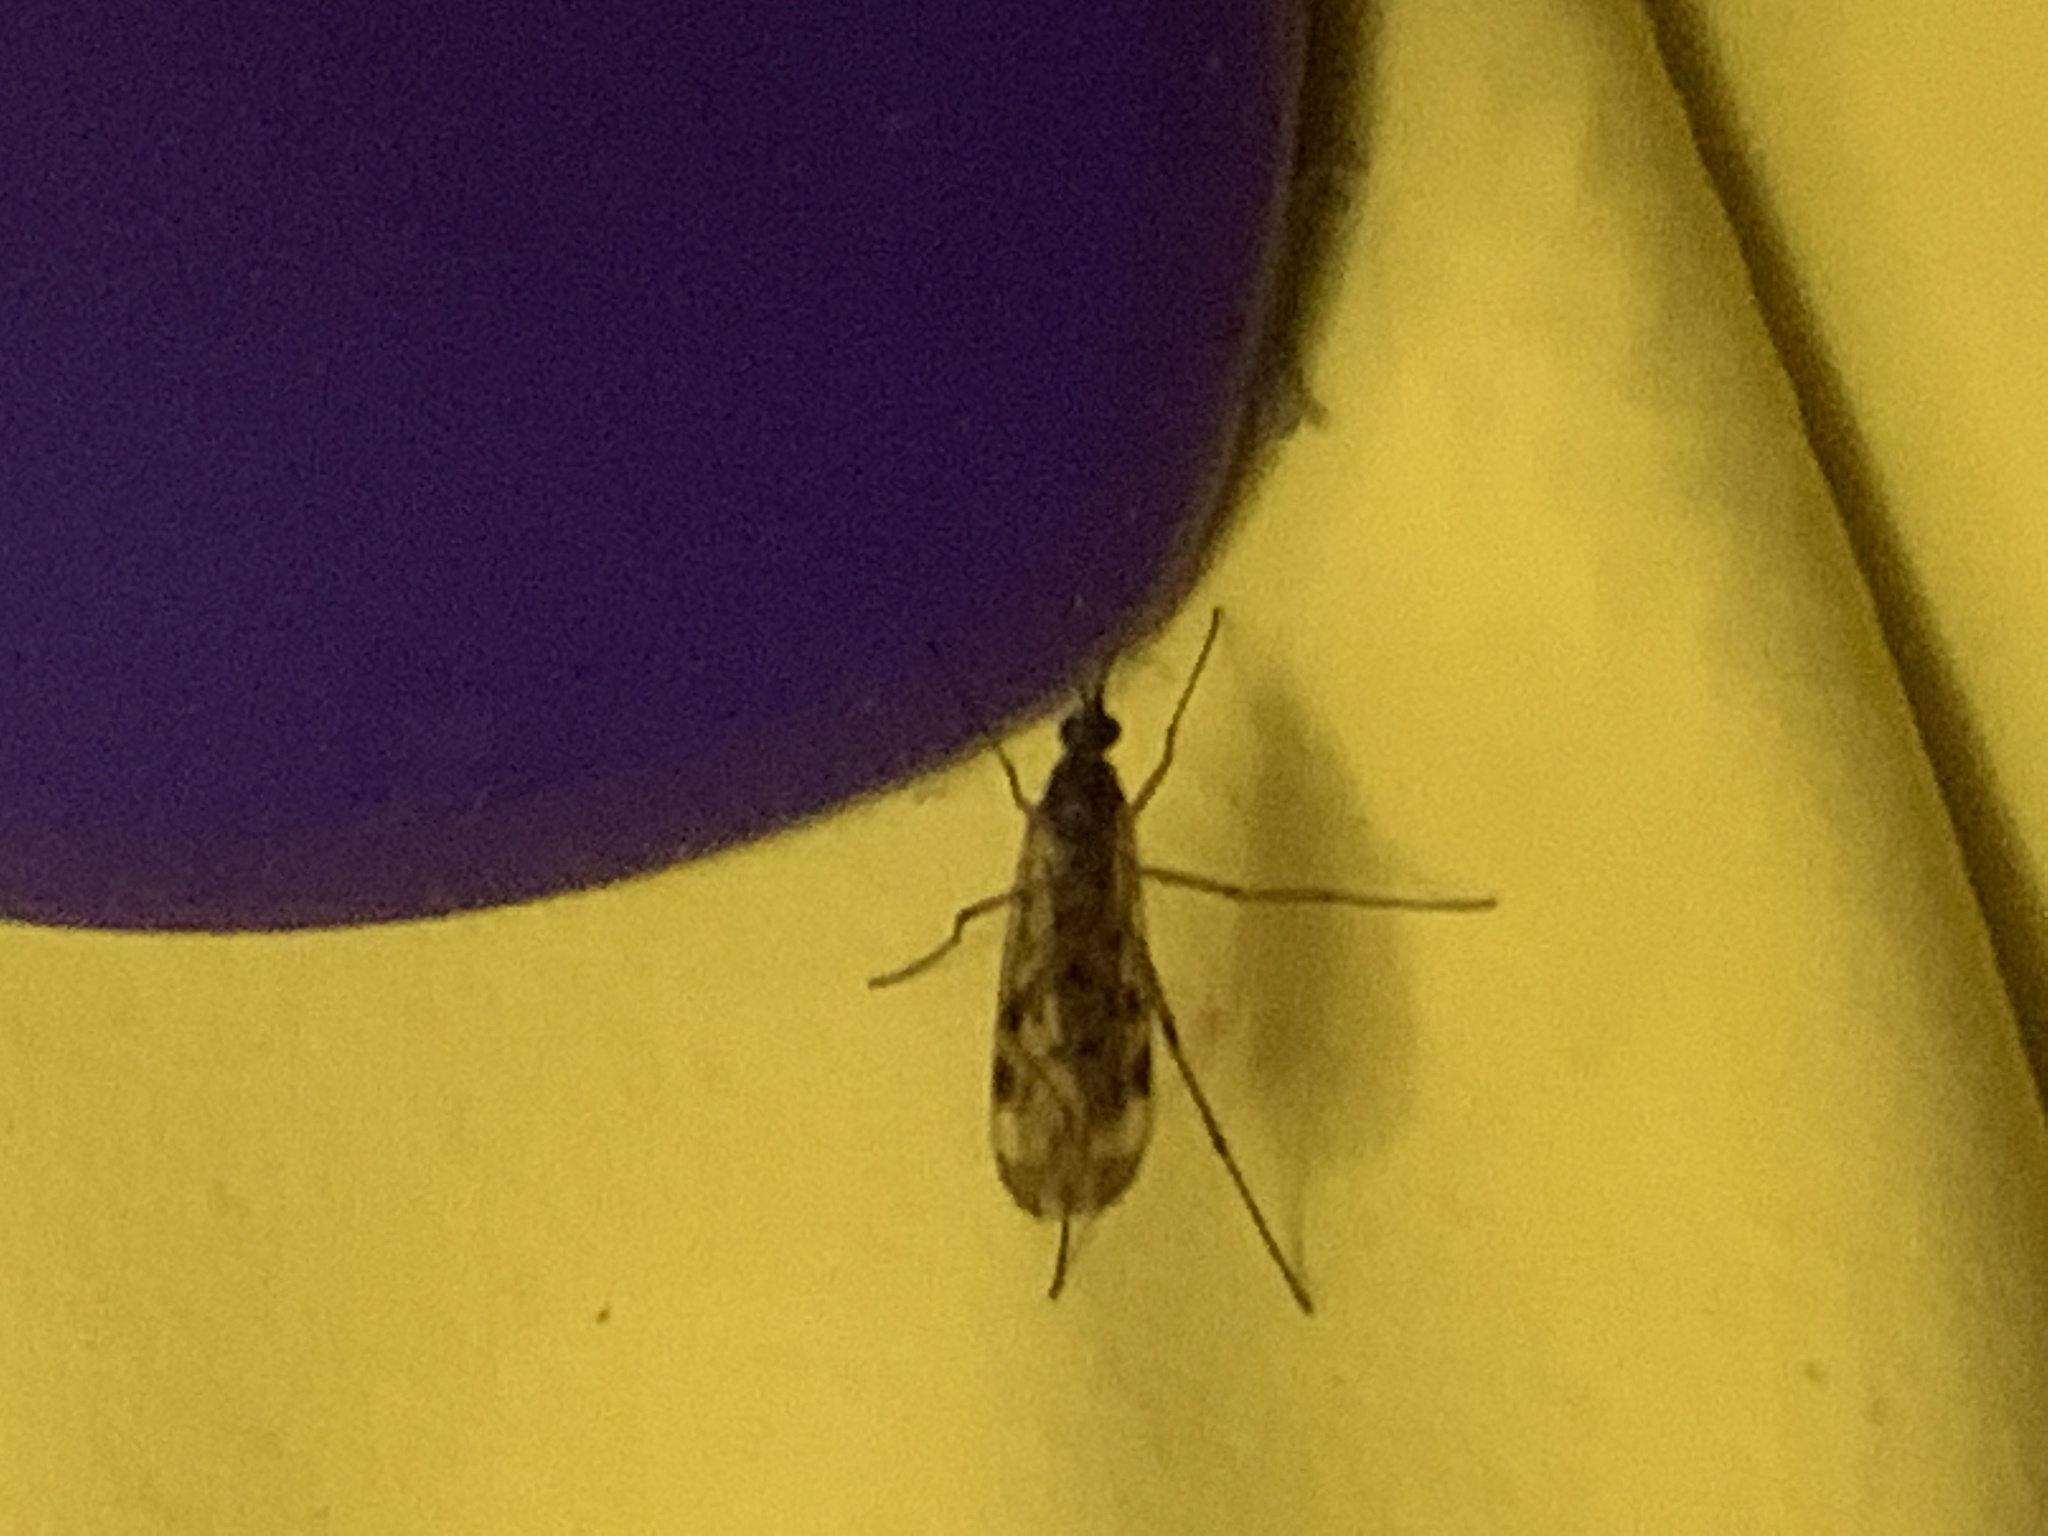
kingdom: Animalia
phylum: Arthropoda
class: Insecta
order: Diptera
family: Anisopodidae
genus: Sylvicola
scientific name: Sylvicola
